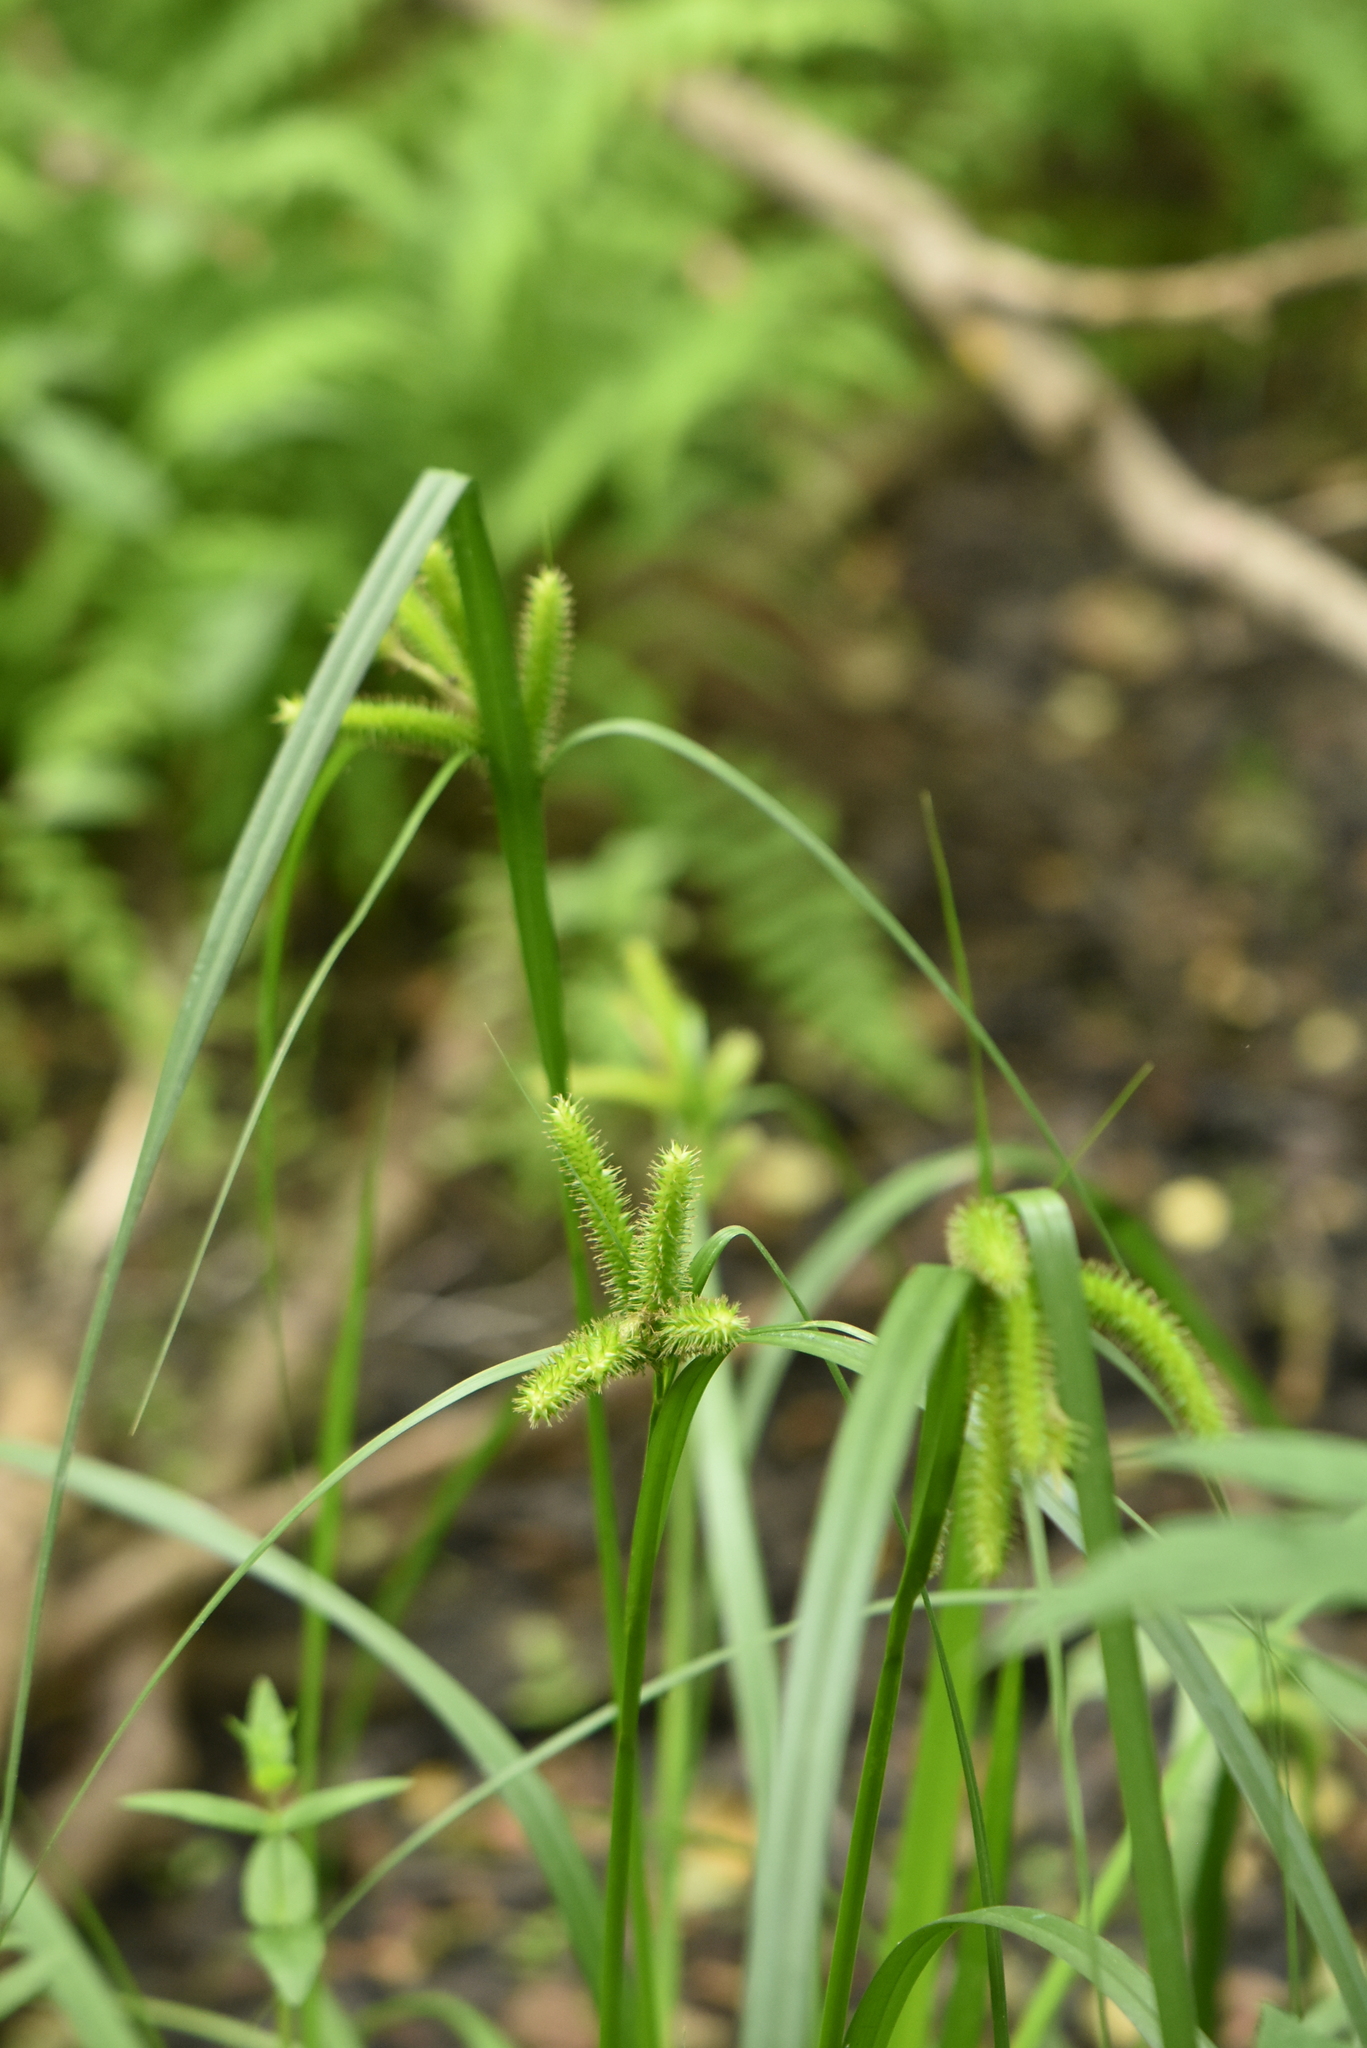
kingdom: Plantae
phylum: Tracheophyta
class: Liliopsida
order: Poales
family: Cyperaceae
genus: Carex
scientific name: Carex pseudocyperus
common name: Cyperus sedge
